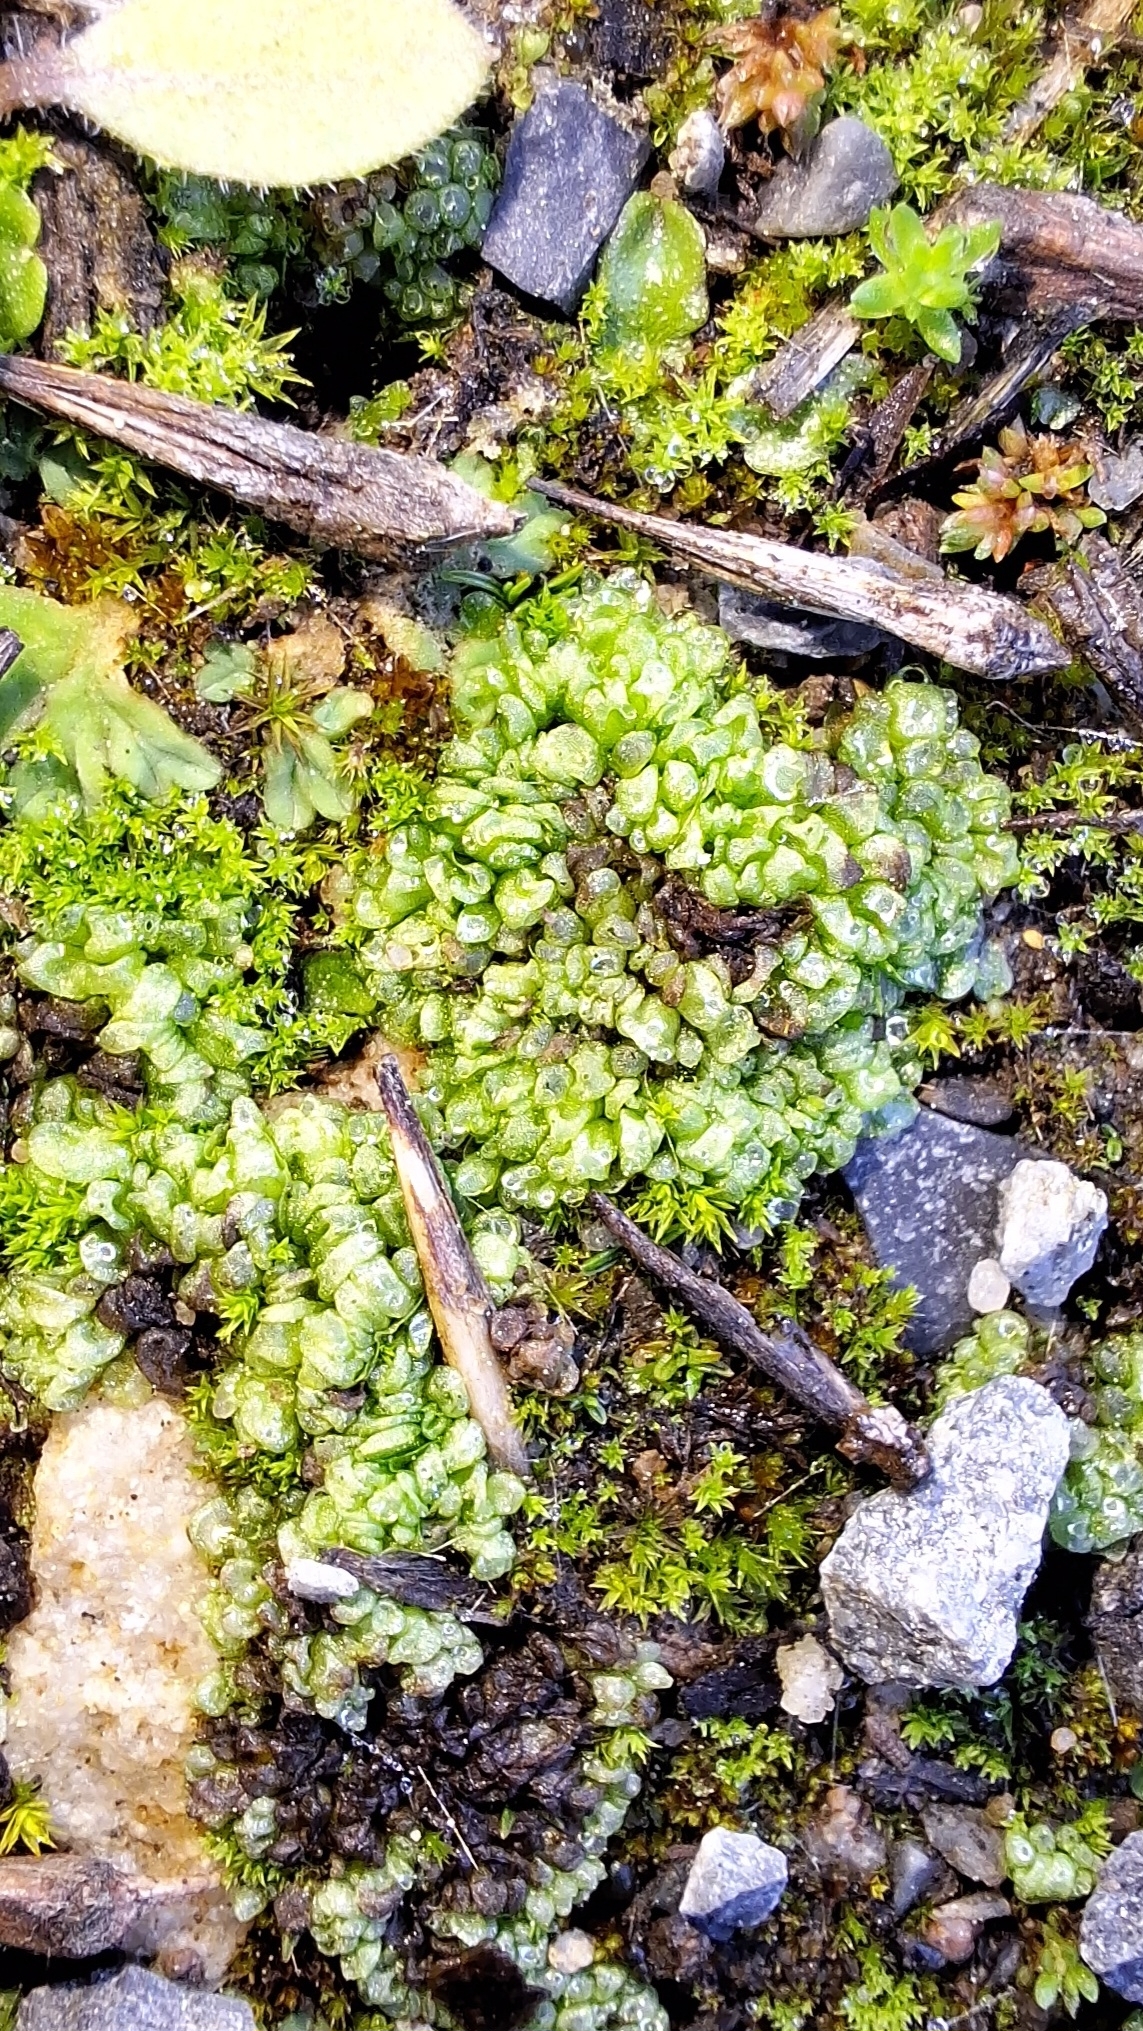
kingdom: Plantae
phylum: Marchantiophyta
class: Marchantiopsida
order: Sphaerocarpales
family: Sphaerocarpaceae
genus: Sphaerocarpos
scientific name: Sphaerocarpos texanus
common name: Texas balloonwort
